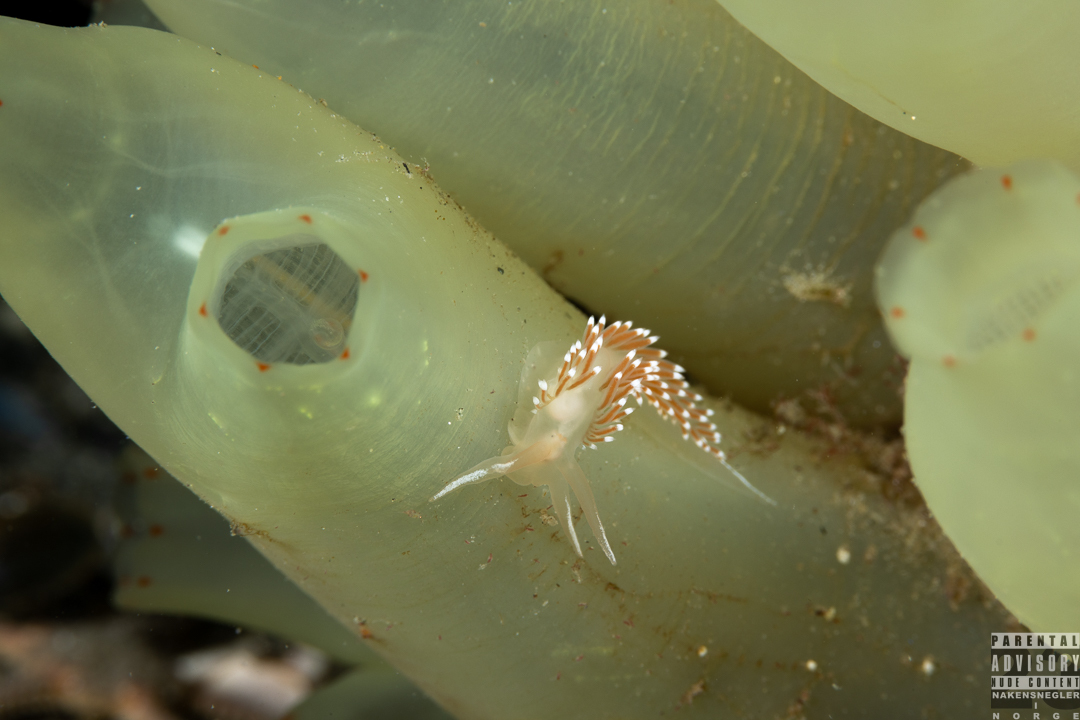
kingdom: Animalia
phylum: Mollusca
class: Gastropoda
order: Nudibranchia
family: Coryphellidae
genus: Coryphella
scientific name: Coryphella verrucosa
